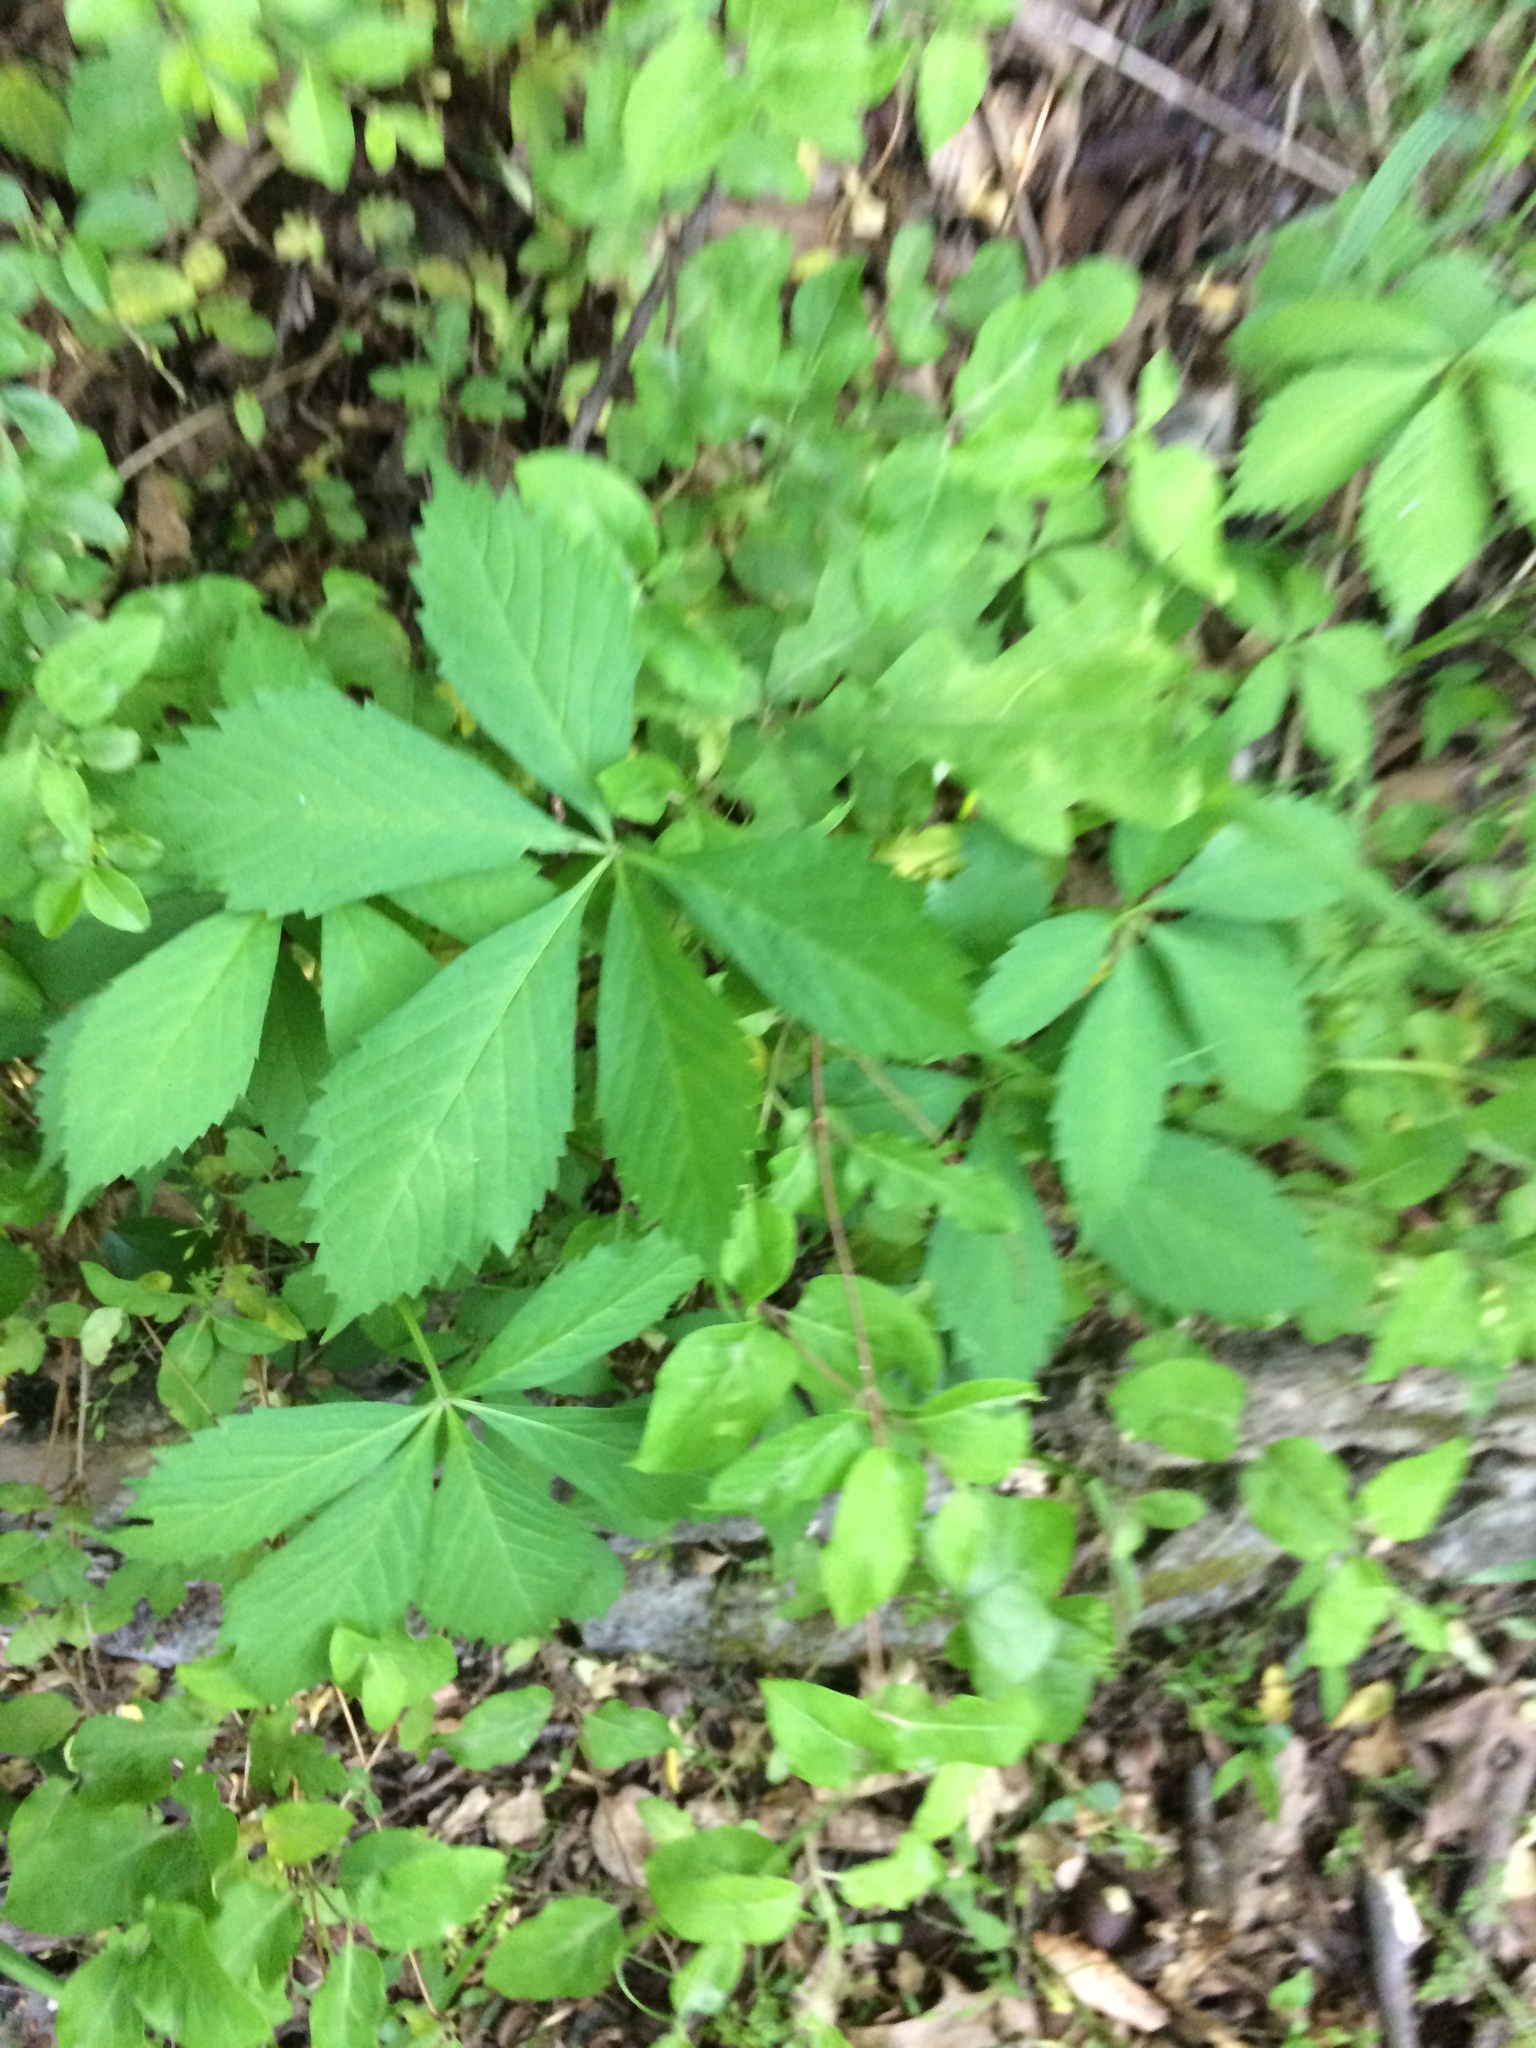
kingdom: Plantae
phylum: Tracheophyta
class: Magnoliopsida
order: Vitales
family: Vitaceae
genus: Parthenocissus
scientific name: Parthenocissus quinquefolia
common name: Virginia-creeper
